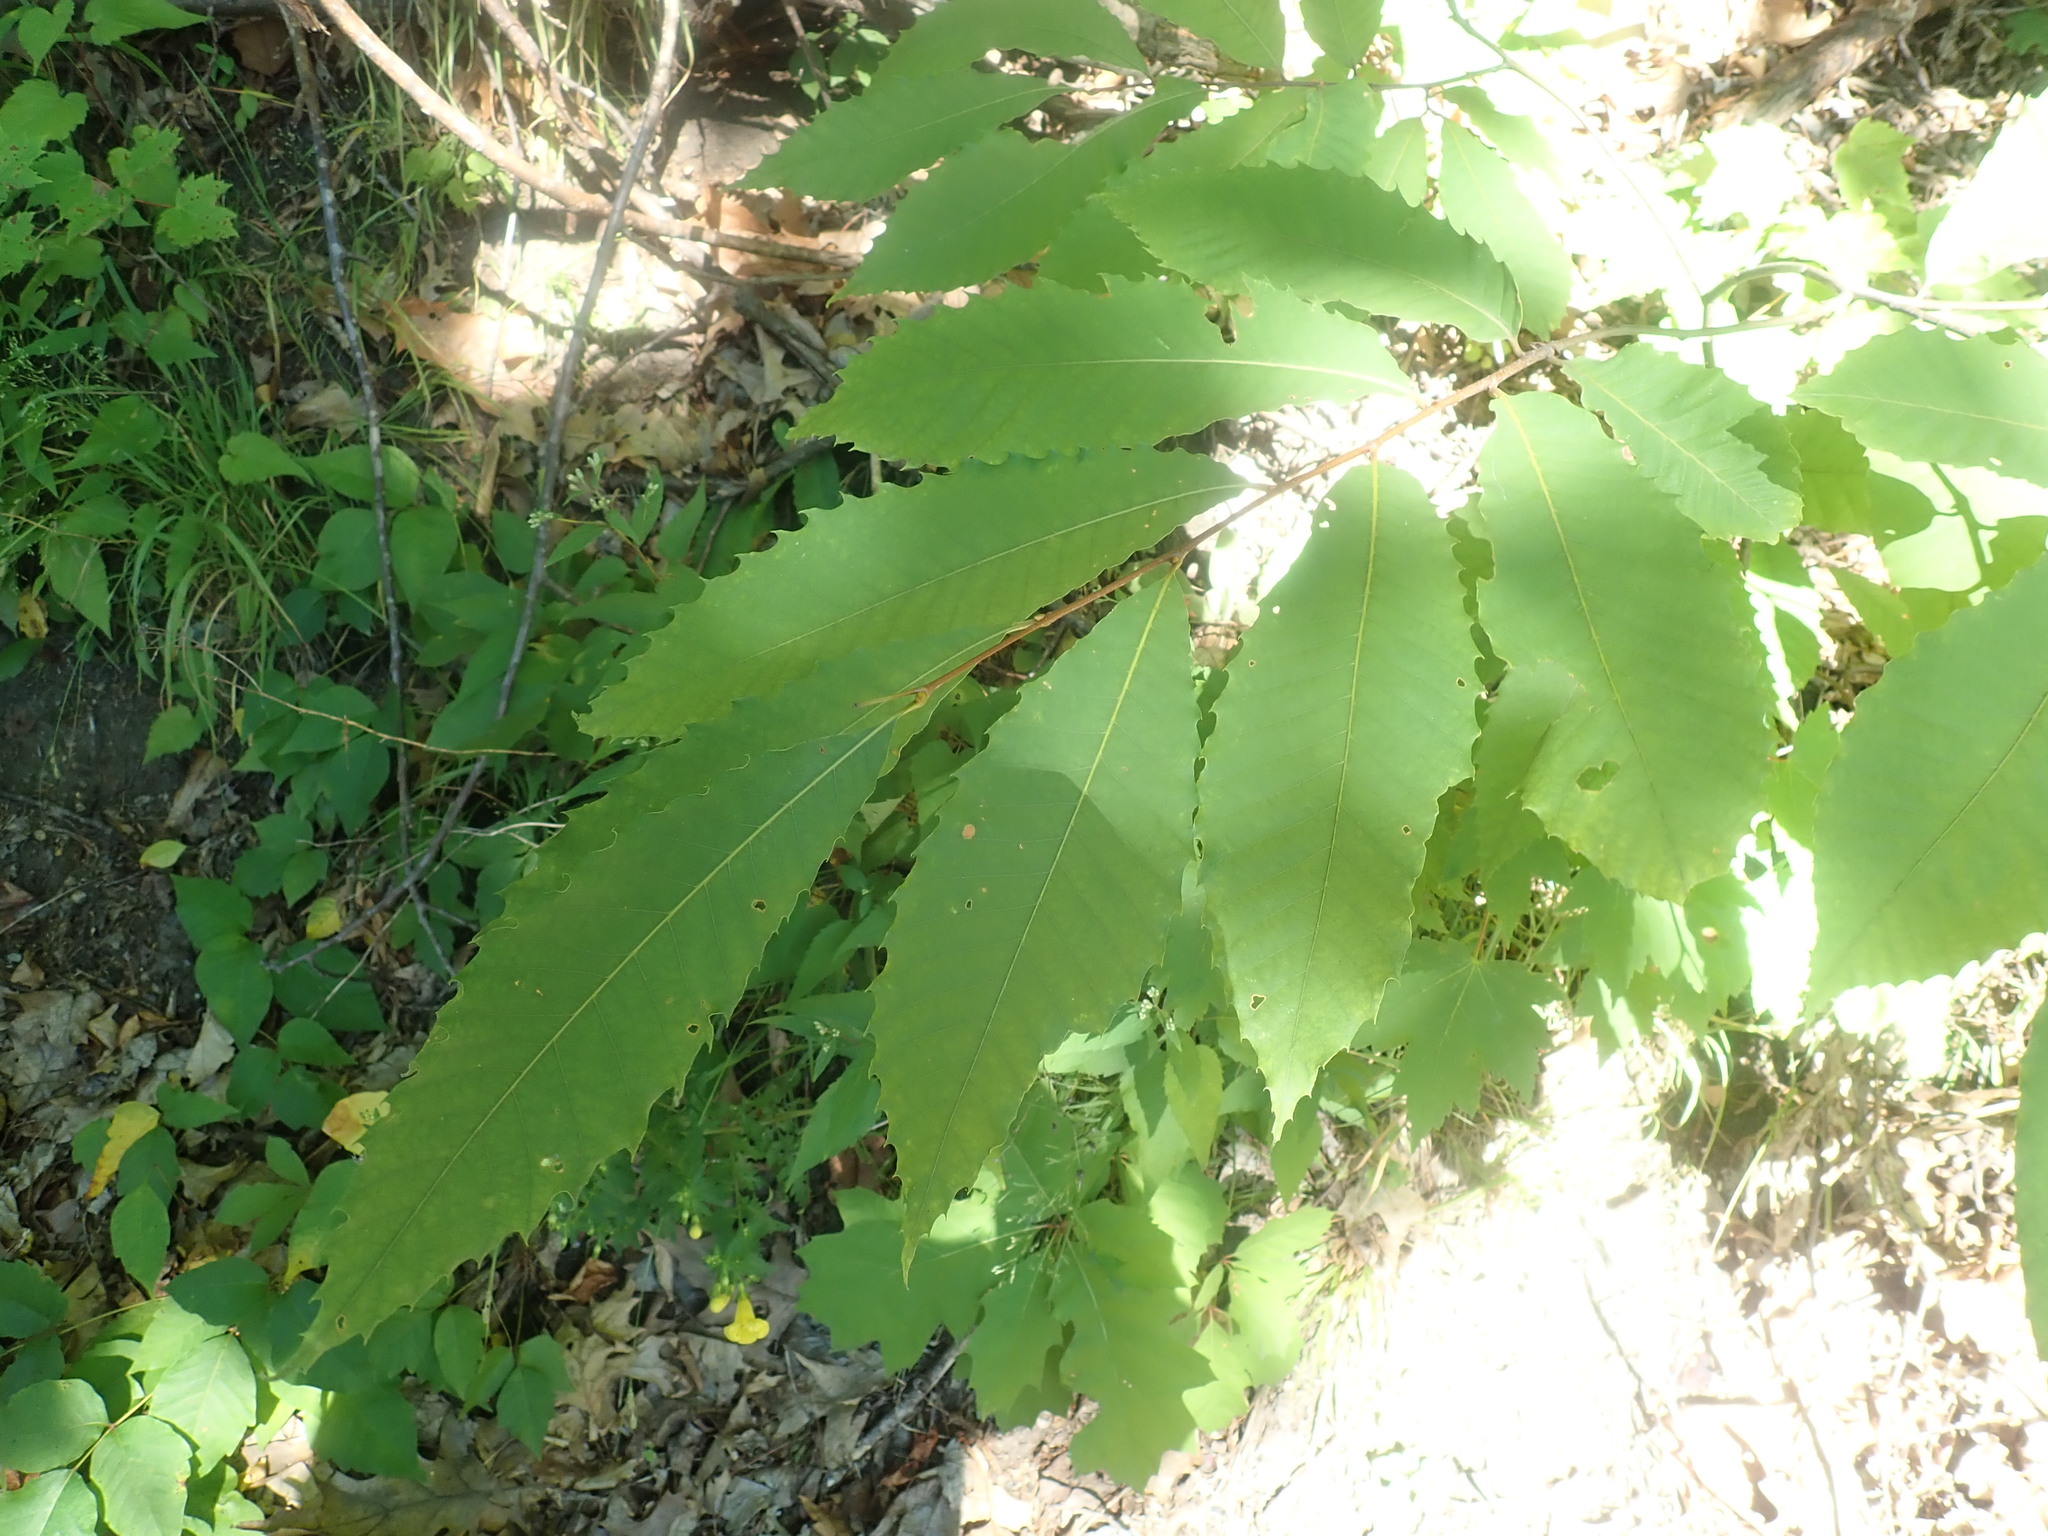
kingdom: Plantae
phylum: Tracheophyta
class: Magnoliopsida
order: Fagales
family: Fagaceae
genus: Castanea
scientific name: Castanea dentata
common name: American chestnut
